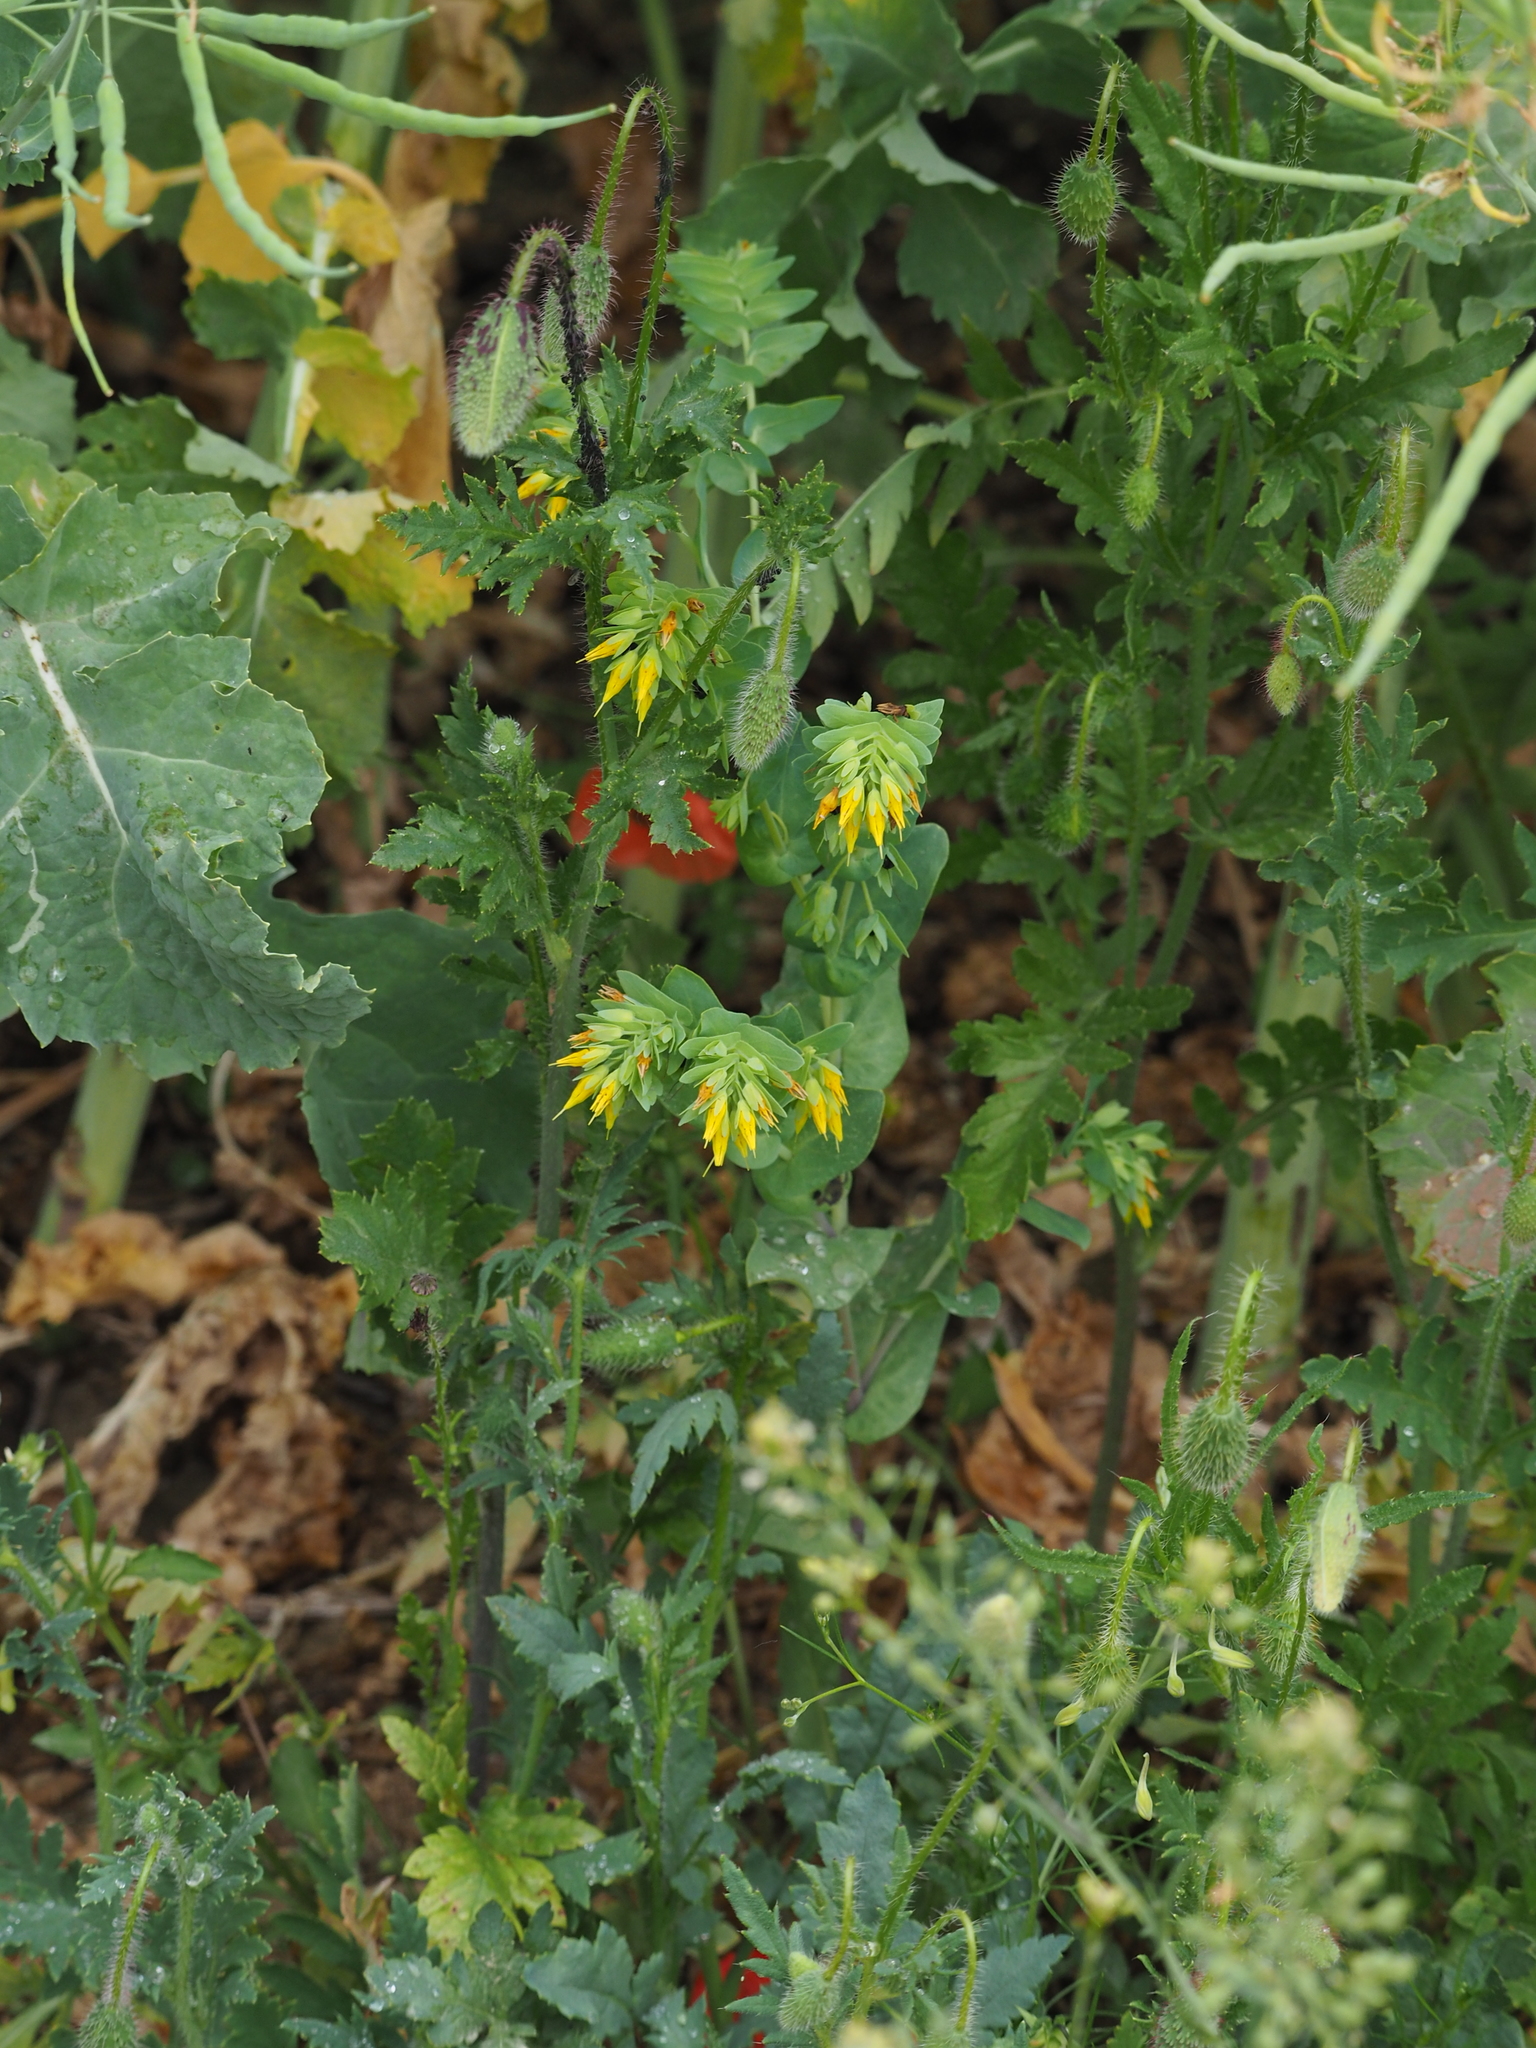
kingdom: Plantae
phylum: Tracheophyta
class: Magnoliopsida
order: Boraginales
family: Boraginaceae
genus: Cerinthe
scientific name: Cerinthe minor
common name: Lesser honeywort
